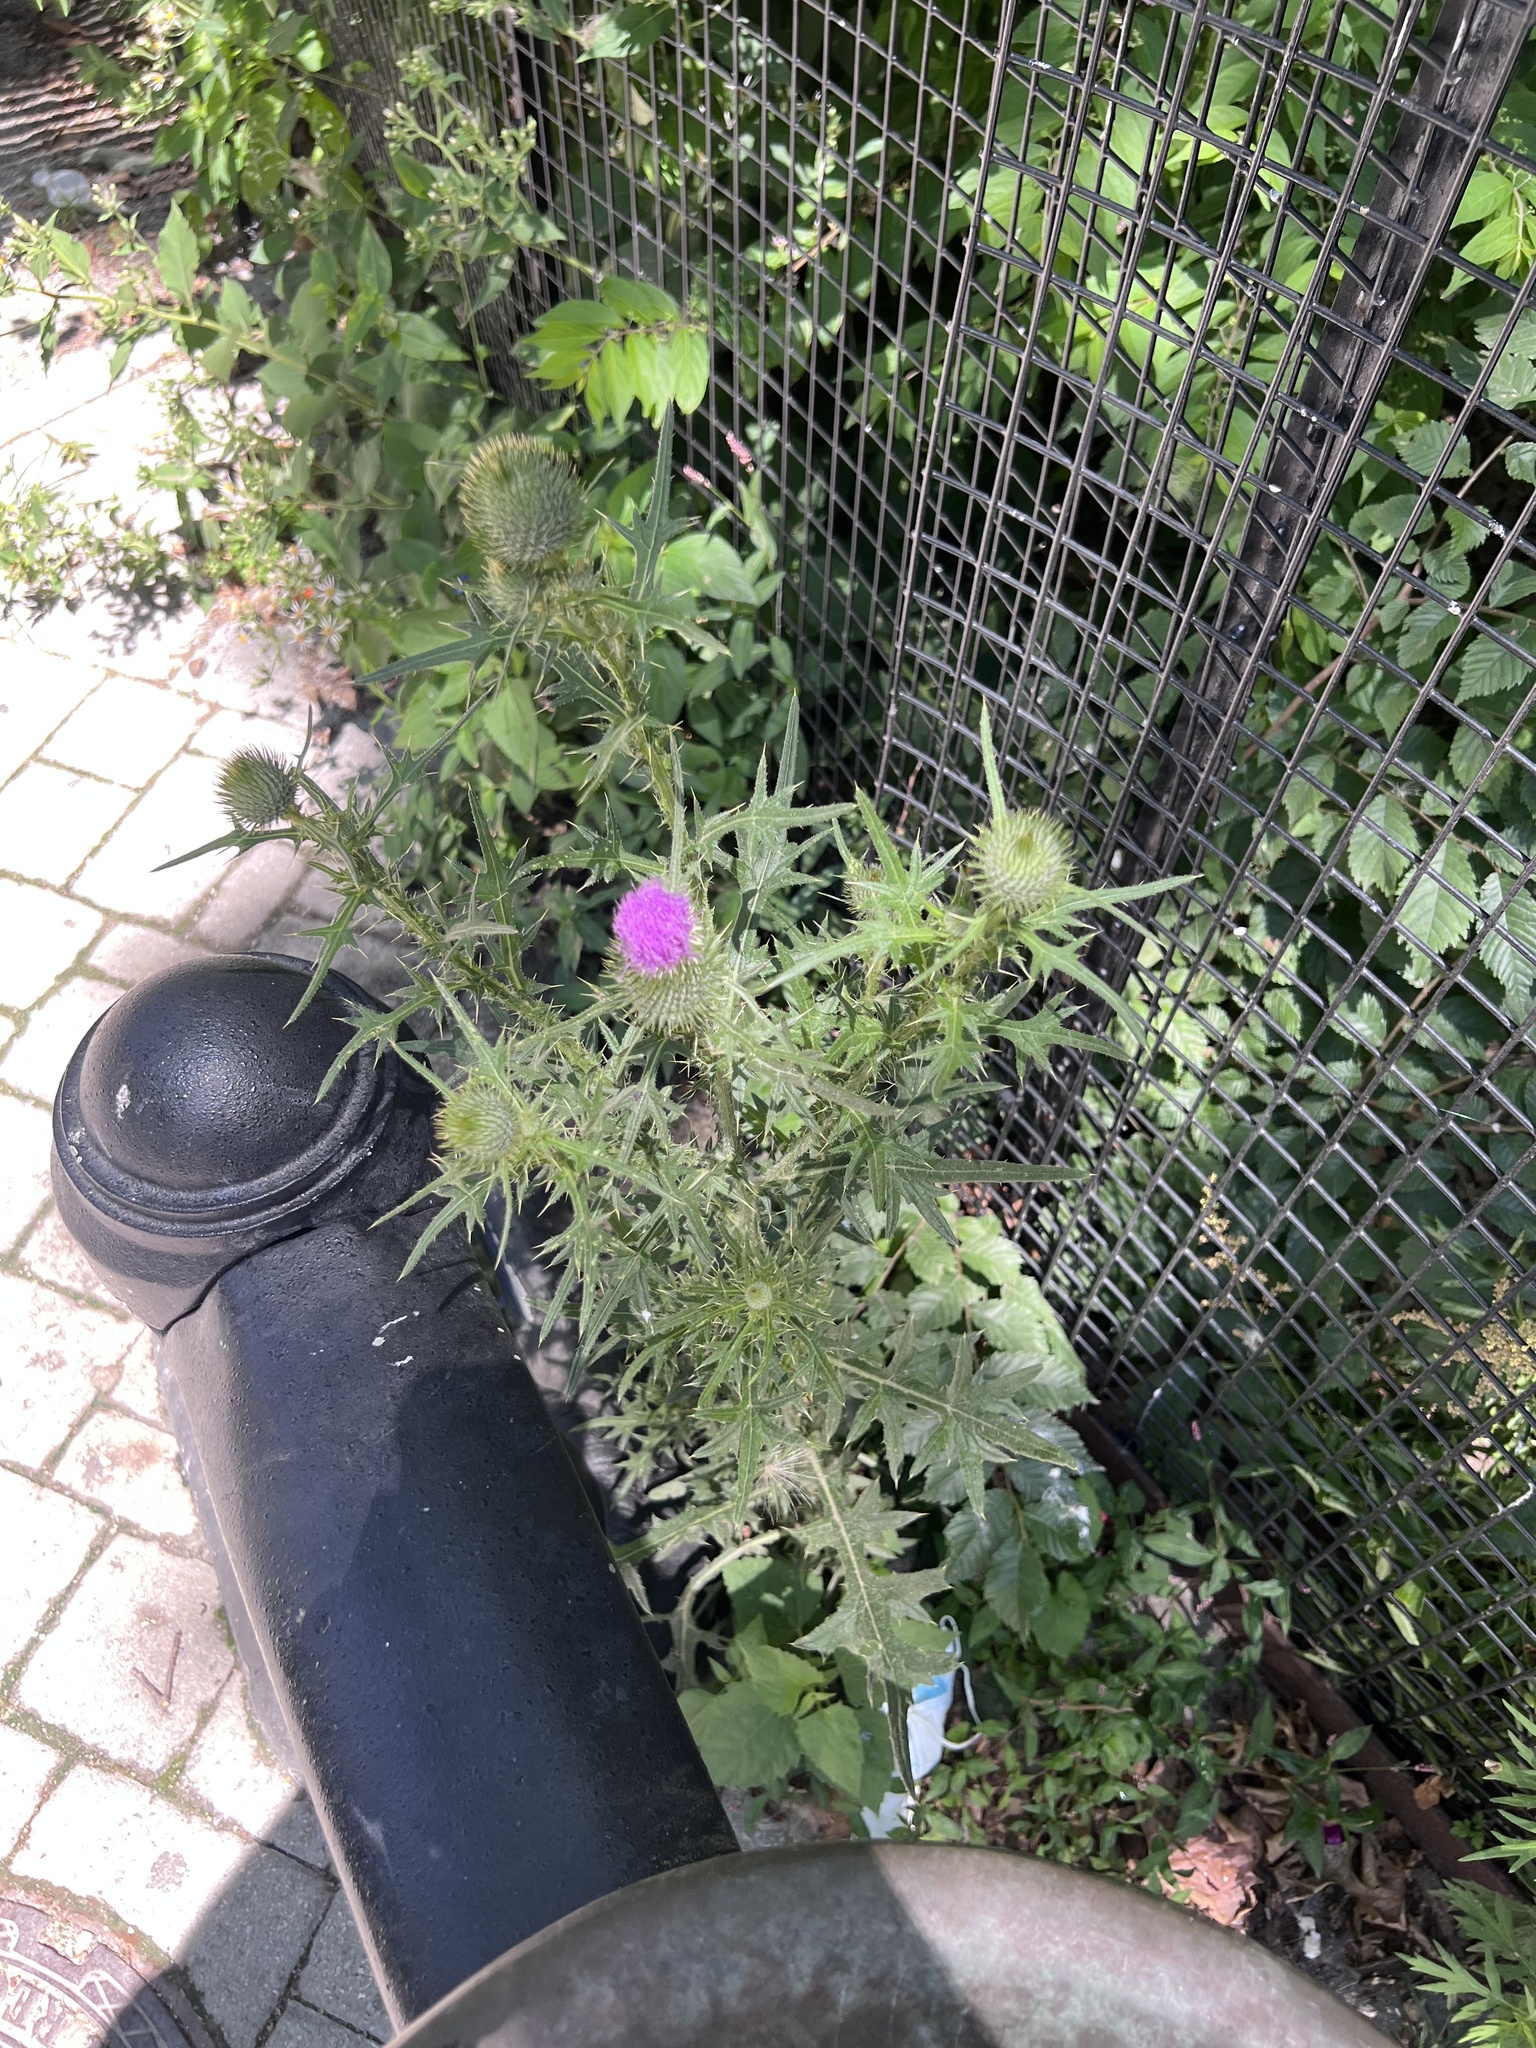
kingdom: Plantae
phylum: Tracheophyta
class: Magnoliopsida
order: Asterales
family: Asteraceae
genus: Cirsium
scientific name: Cirsium vulgare
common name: Bull thistle
